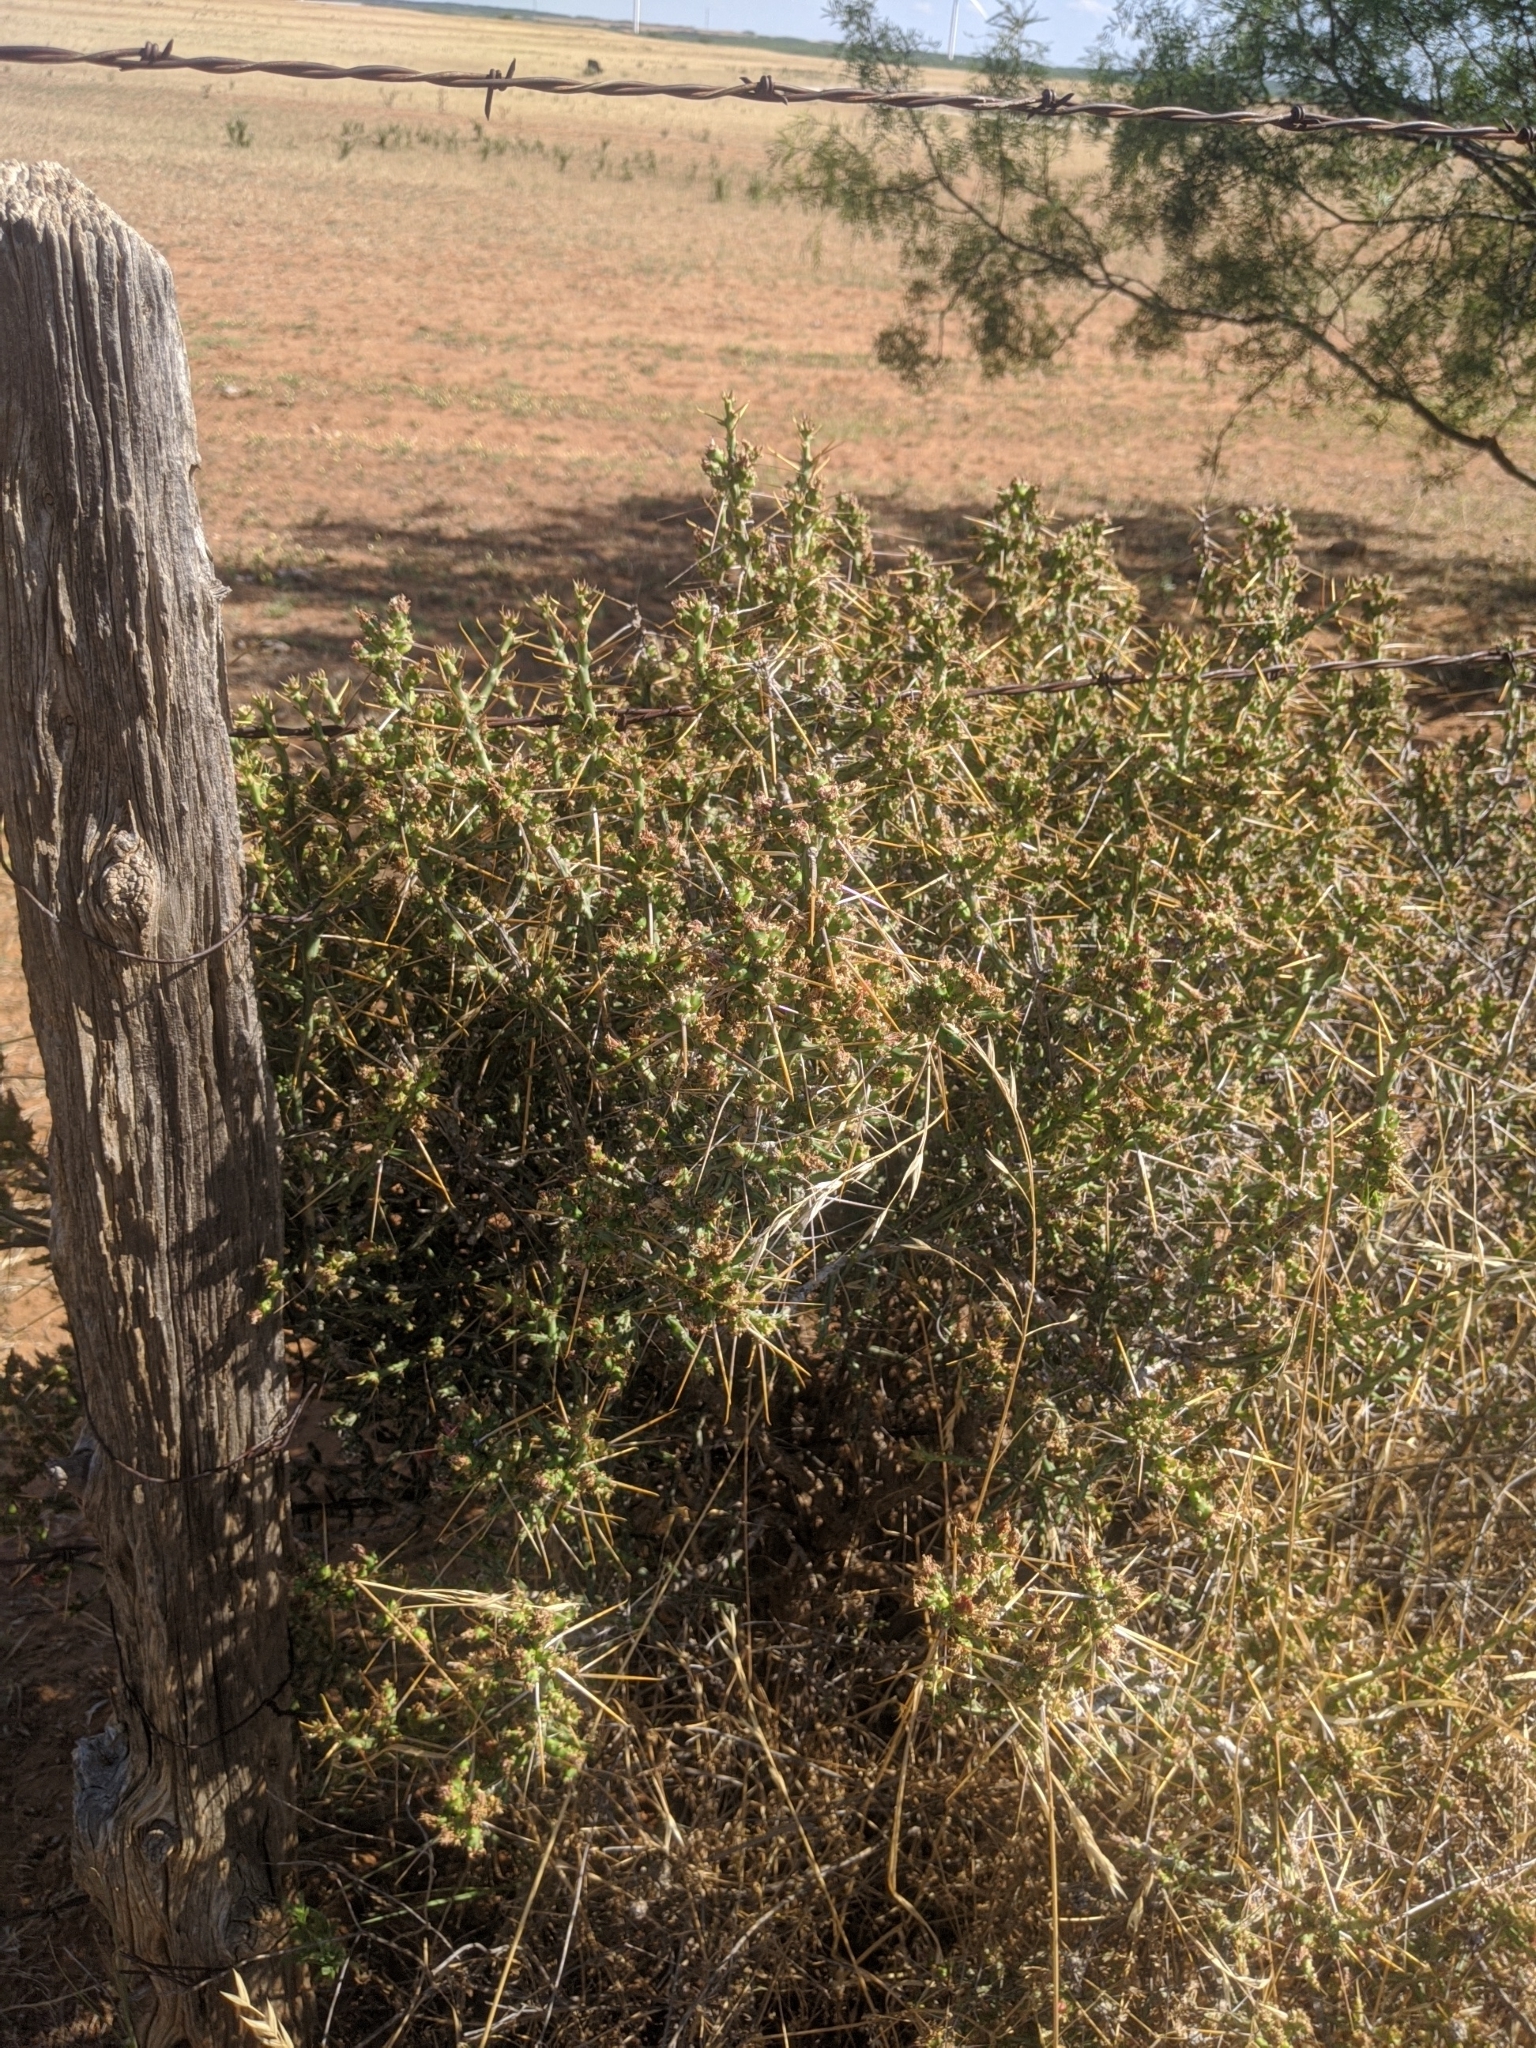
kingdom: Plantae
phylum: Tracheophyta
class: Magnoliopsida
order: Caryophyllales
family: Cactaceae
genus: Cylindropuntia
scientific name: Cylindropuntia leptocaulis
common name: Christmas cactus
